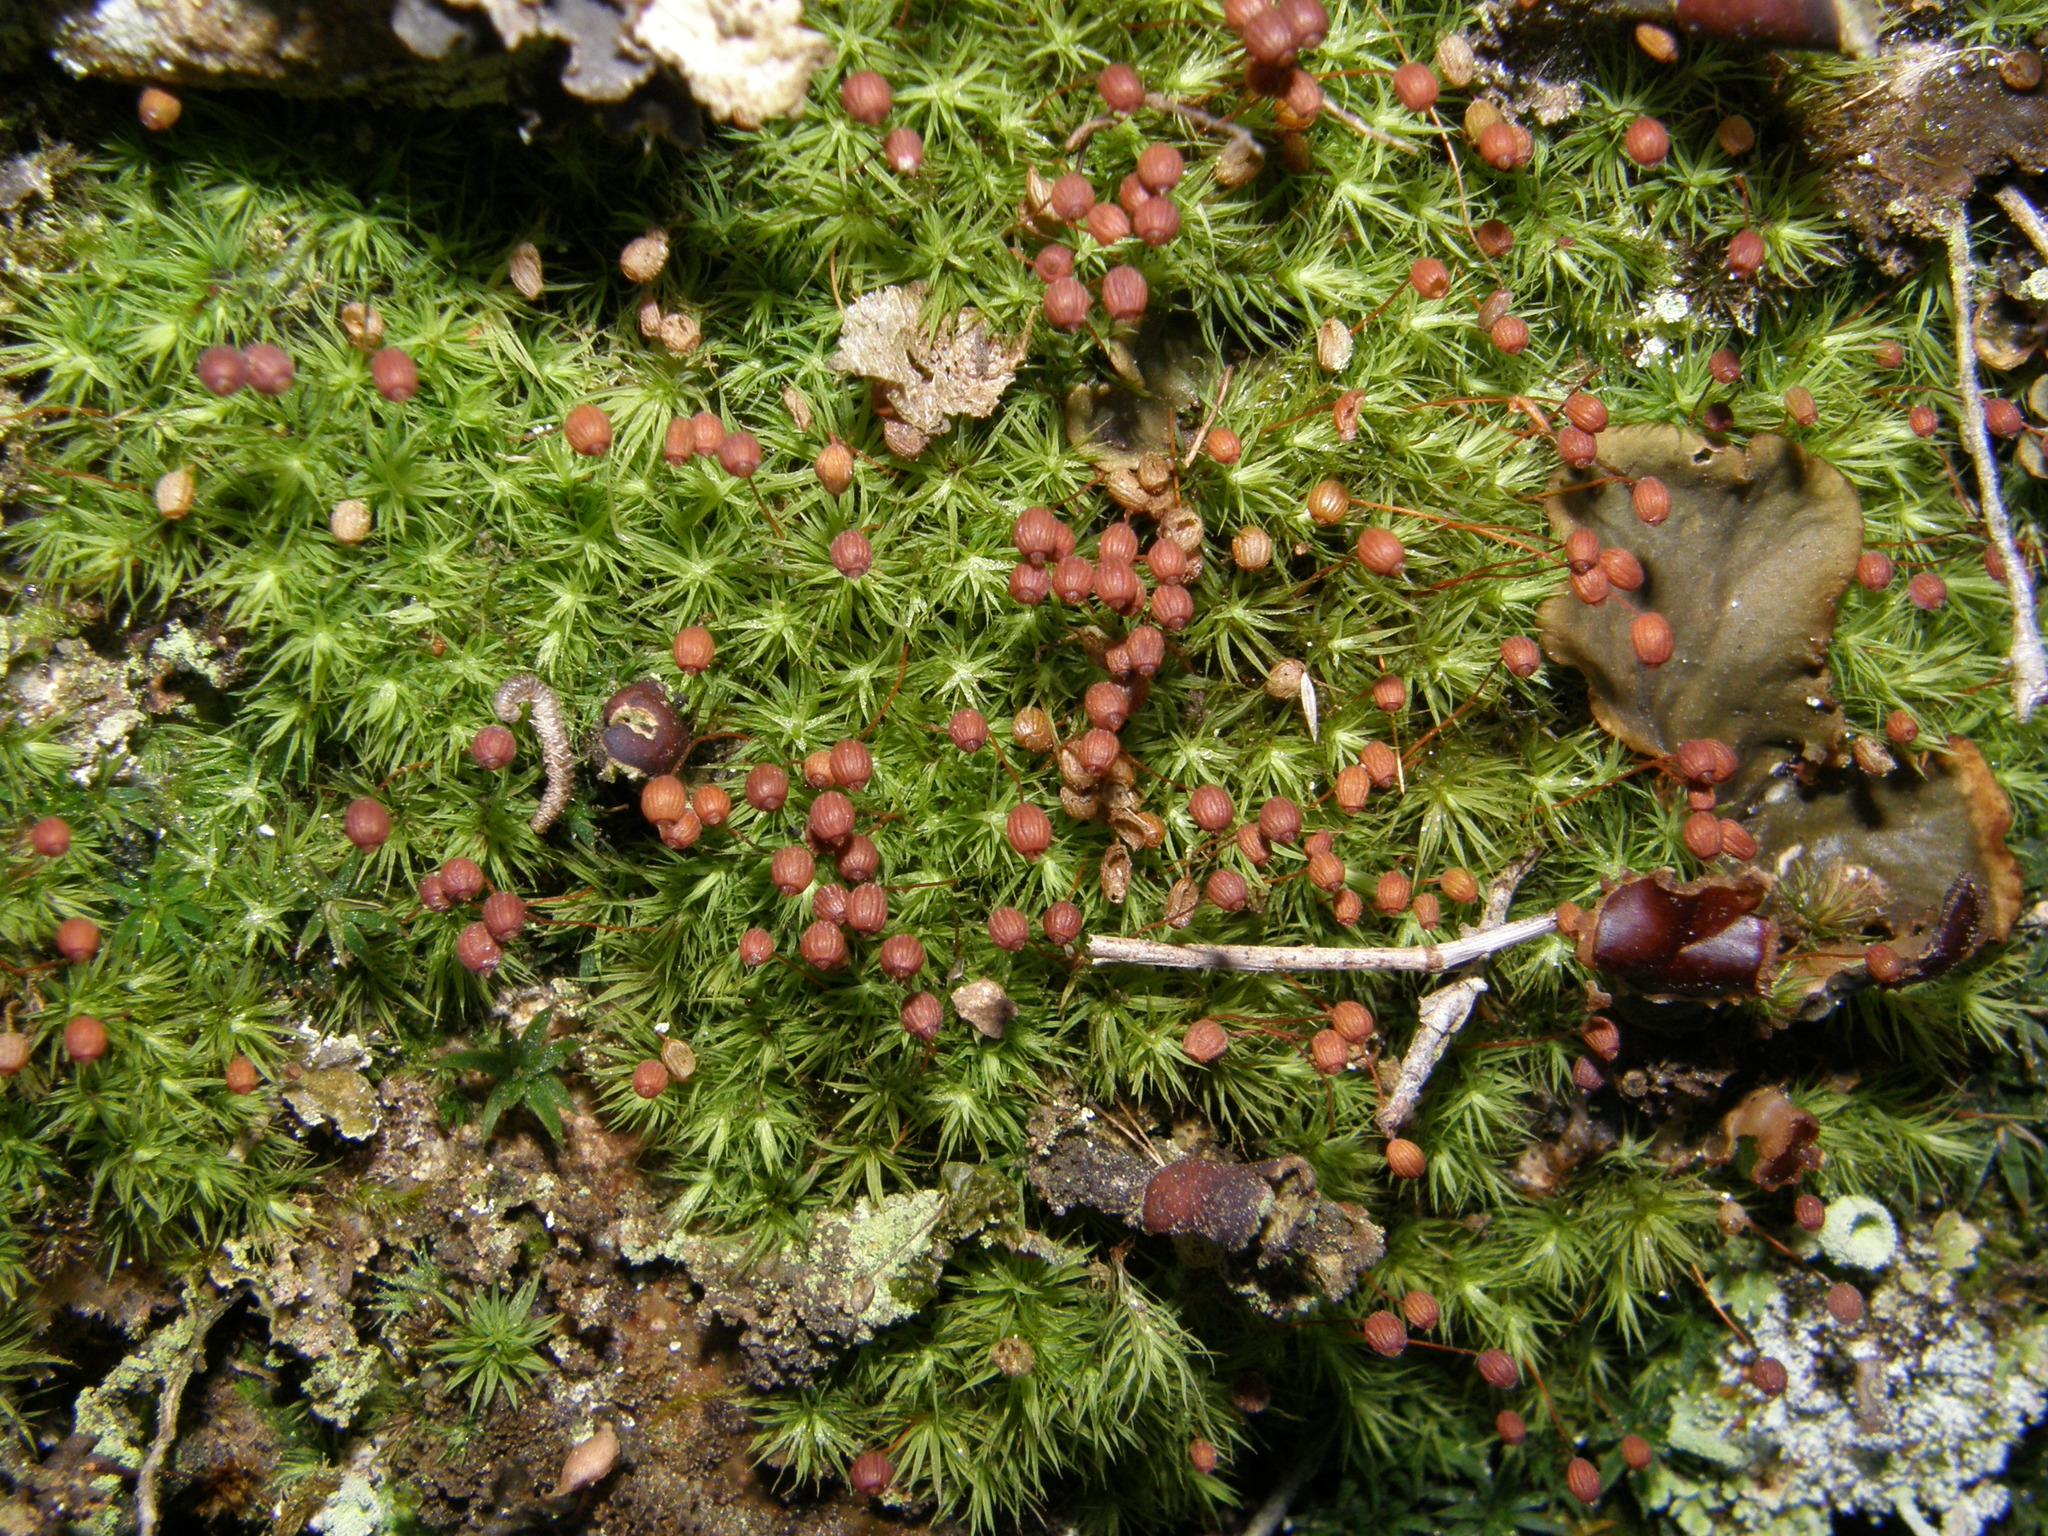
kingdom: Plantae
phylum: Bryophyta
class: Bryopsida
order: Bartramiales
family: Bartramiaceae
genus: Bartramia
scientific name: Bartramia ithyphylla
